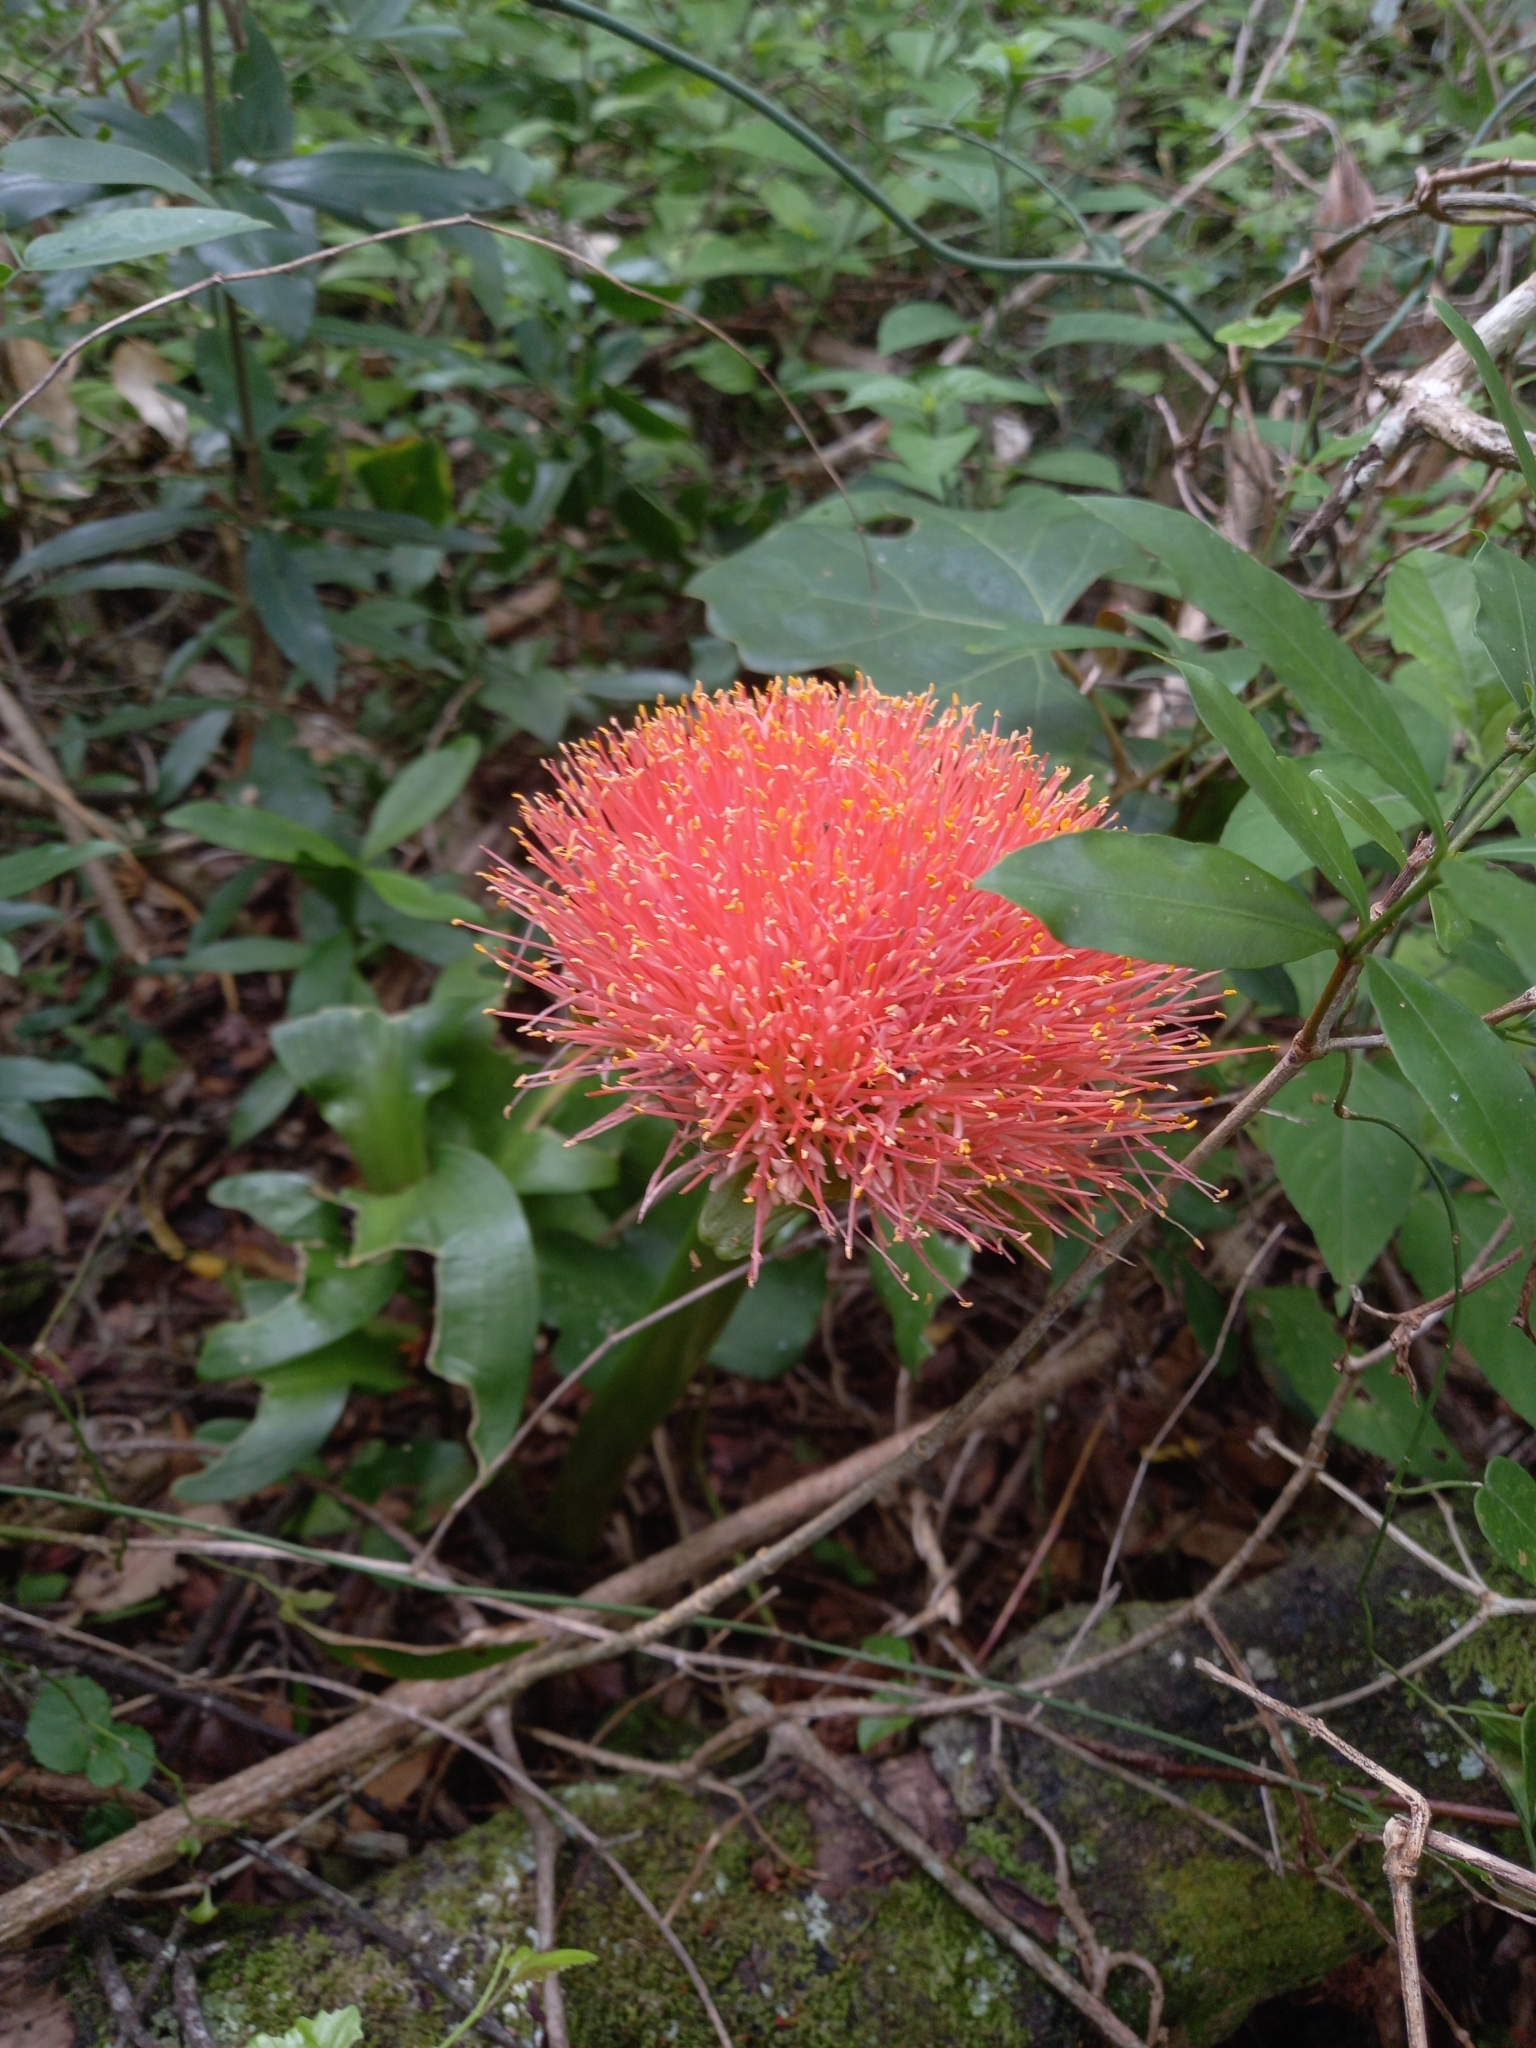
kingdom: Plantae
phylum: Tracheophyta
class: Liliopsida
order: Asparagales
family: Amaryllidaceae
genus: Scadoxus
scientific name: Scadoxus puniceus
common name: Royal-paintbrush
